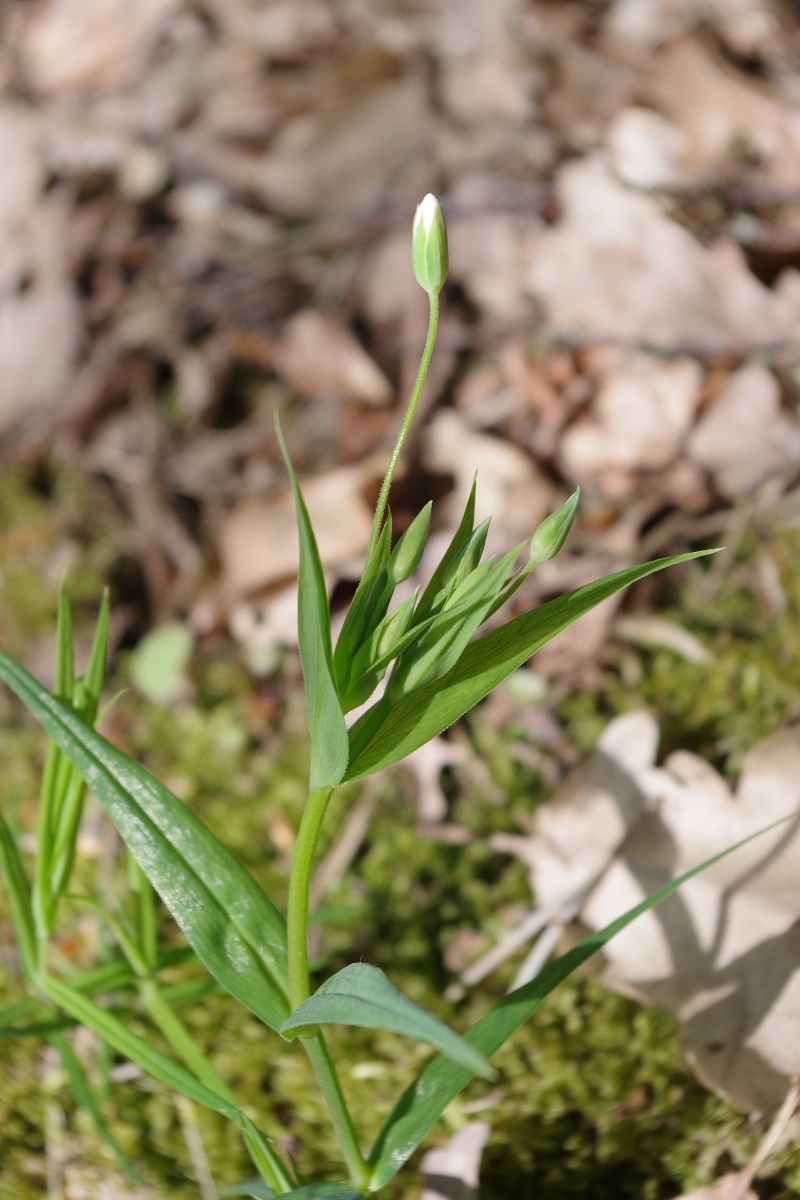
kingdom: Plantae
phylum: Tracheophyta
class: Magnoliopsida
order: Caryophyllales
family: Caryophyllaceae
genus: Rabelera
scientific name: Rabelera holostea
